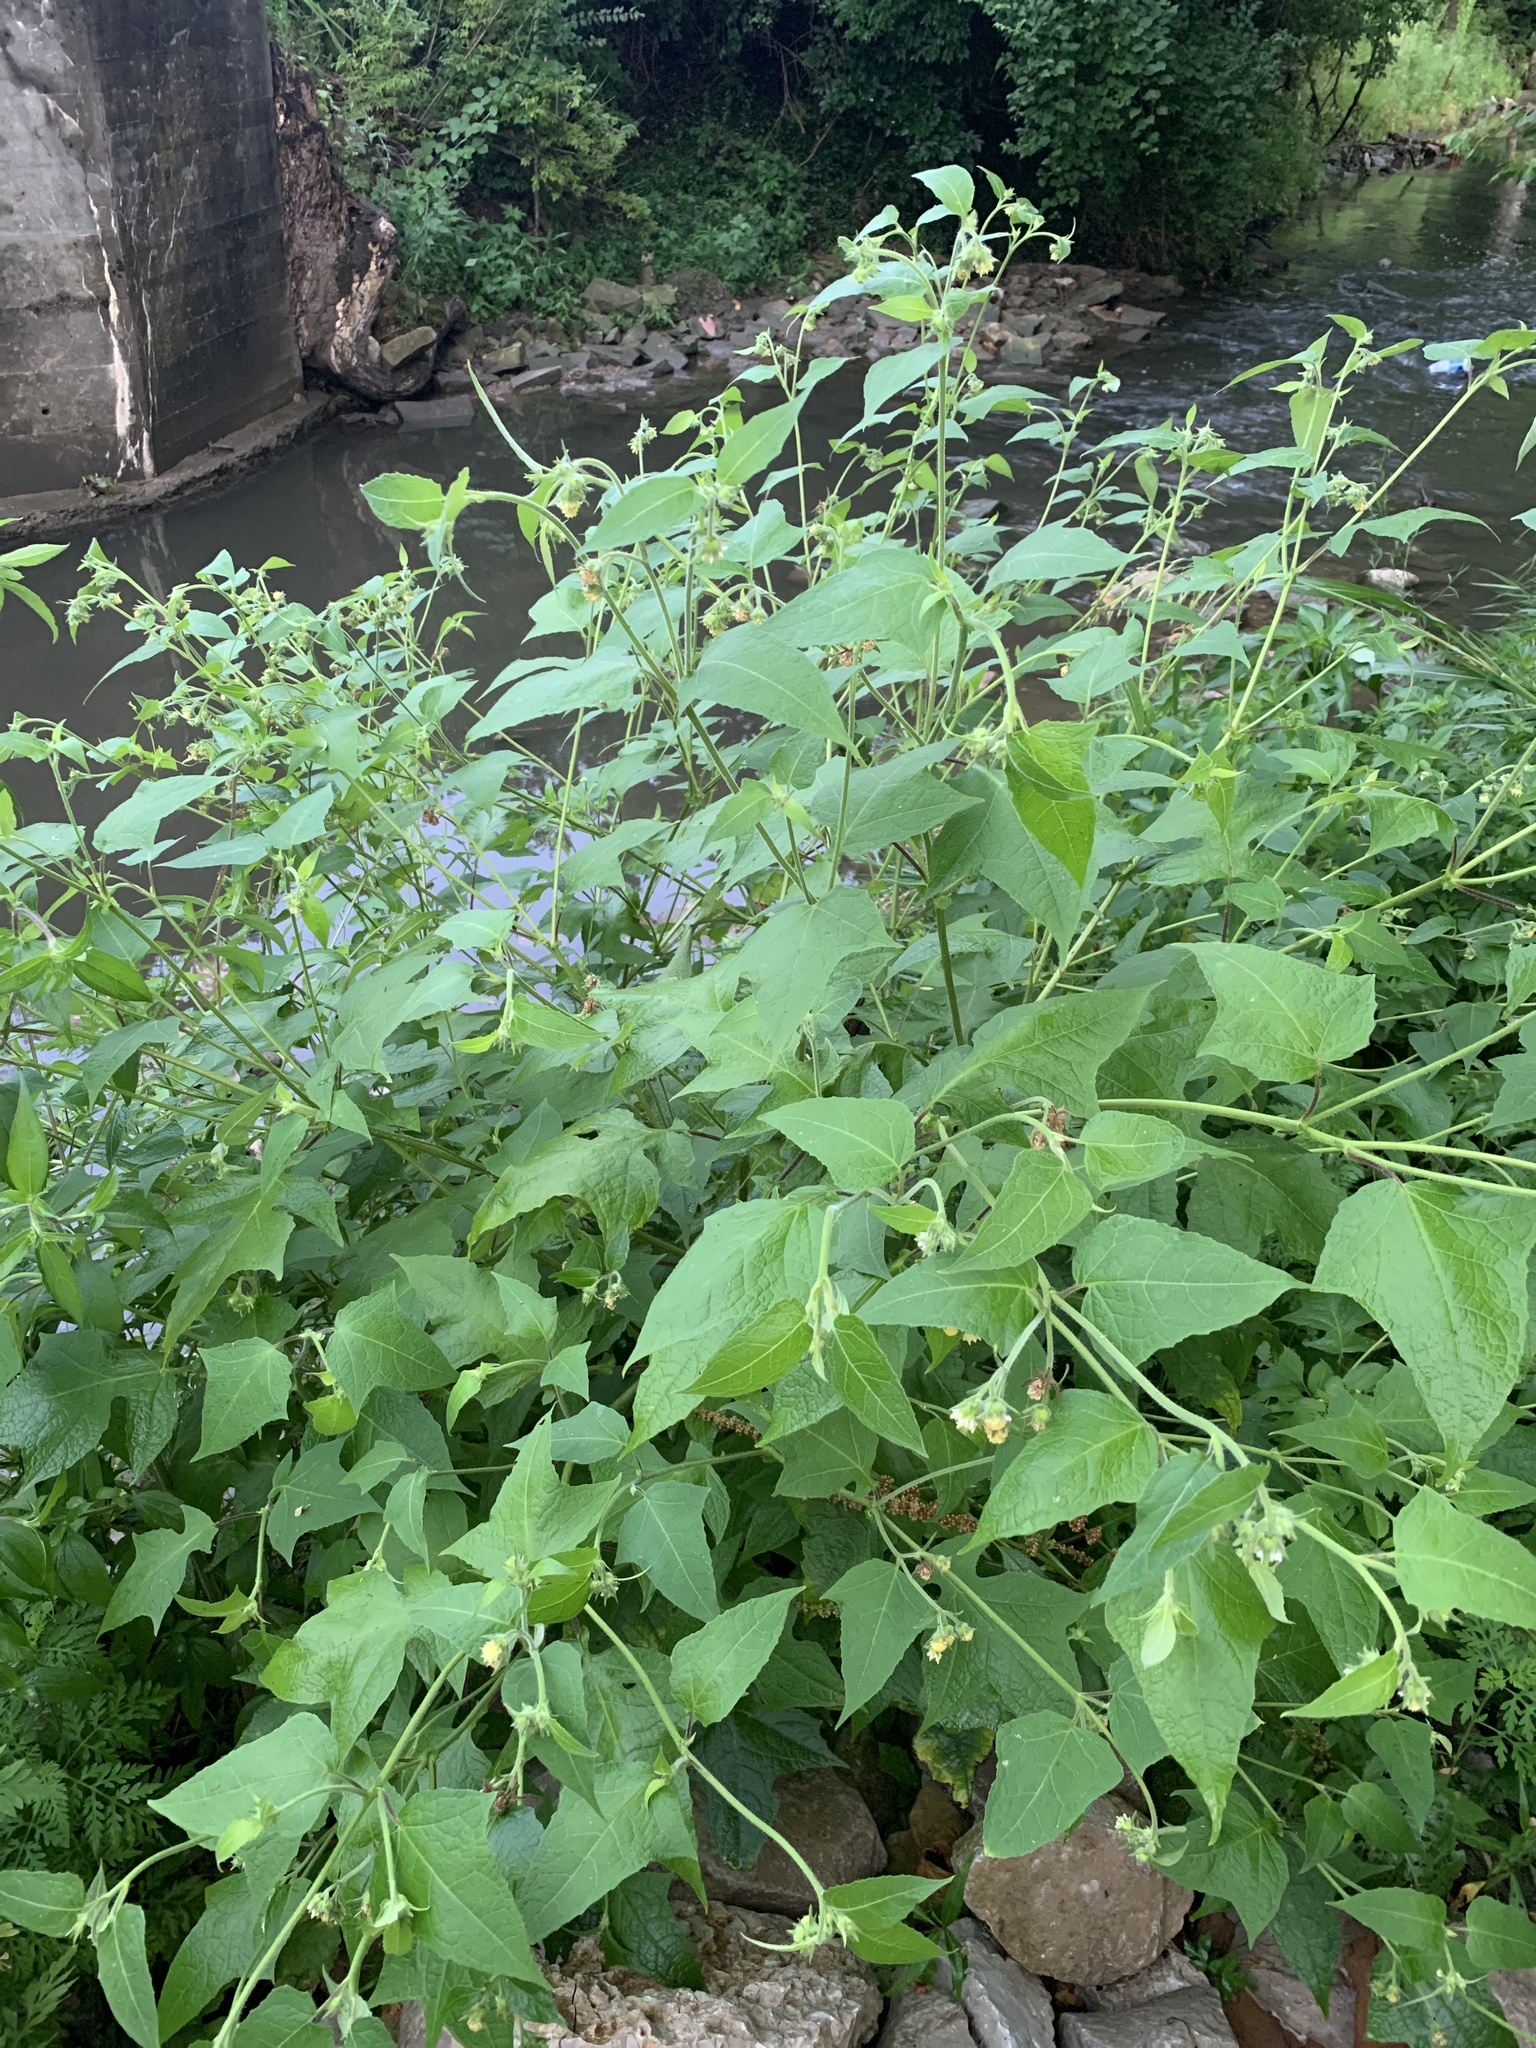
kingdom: Plantae
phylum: Tracheophyta
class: Magnoliopsida
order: Asterales
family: Asteraceae
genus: Polymnia
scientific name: Polymnia canadensis
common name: Pale-flowered leafcup
